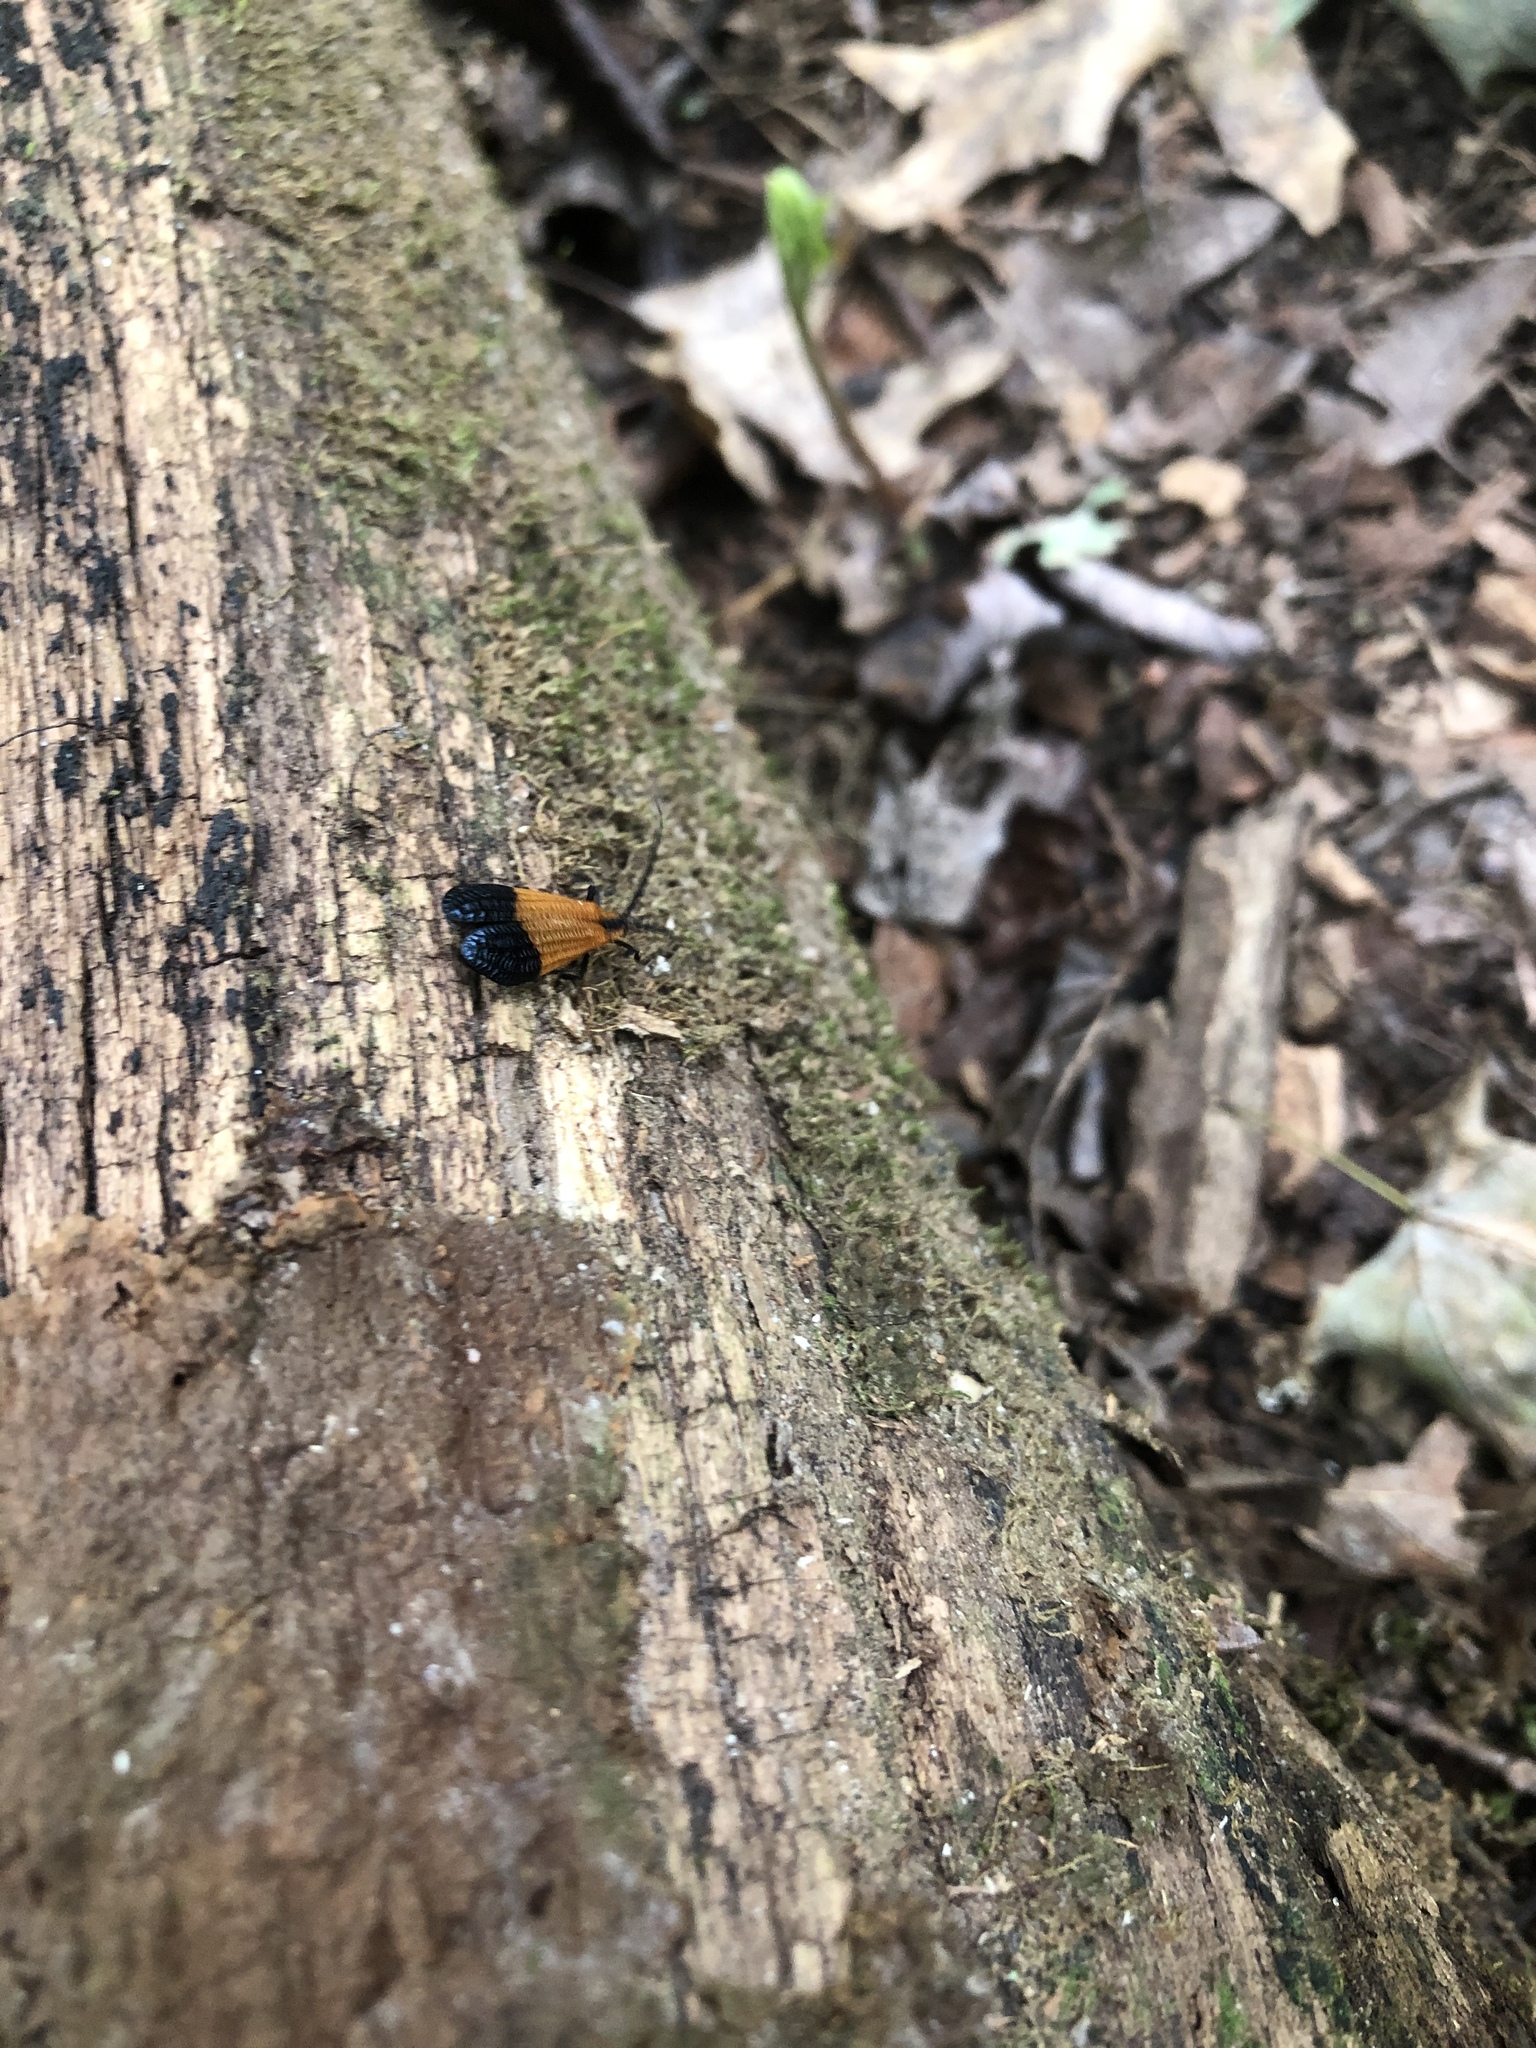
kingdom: Animalia
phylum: Arthropoda
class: Insecta
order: Coleoptera
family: Lycidae
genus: Calopteron
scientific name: Calopteron terminale
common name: End band net-winged beetle
